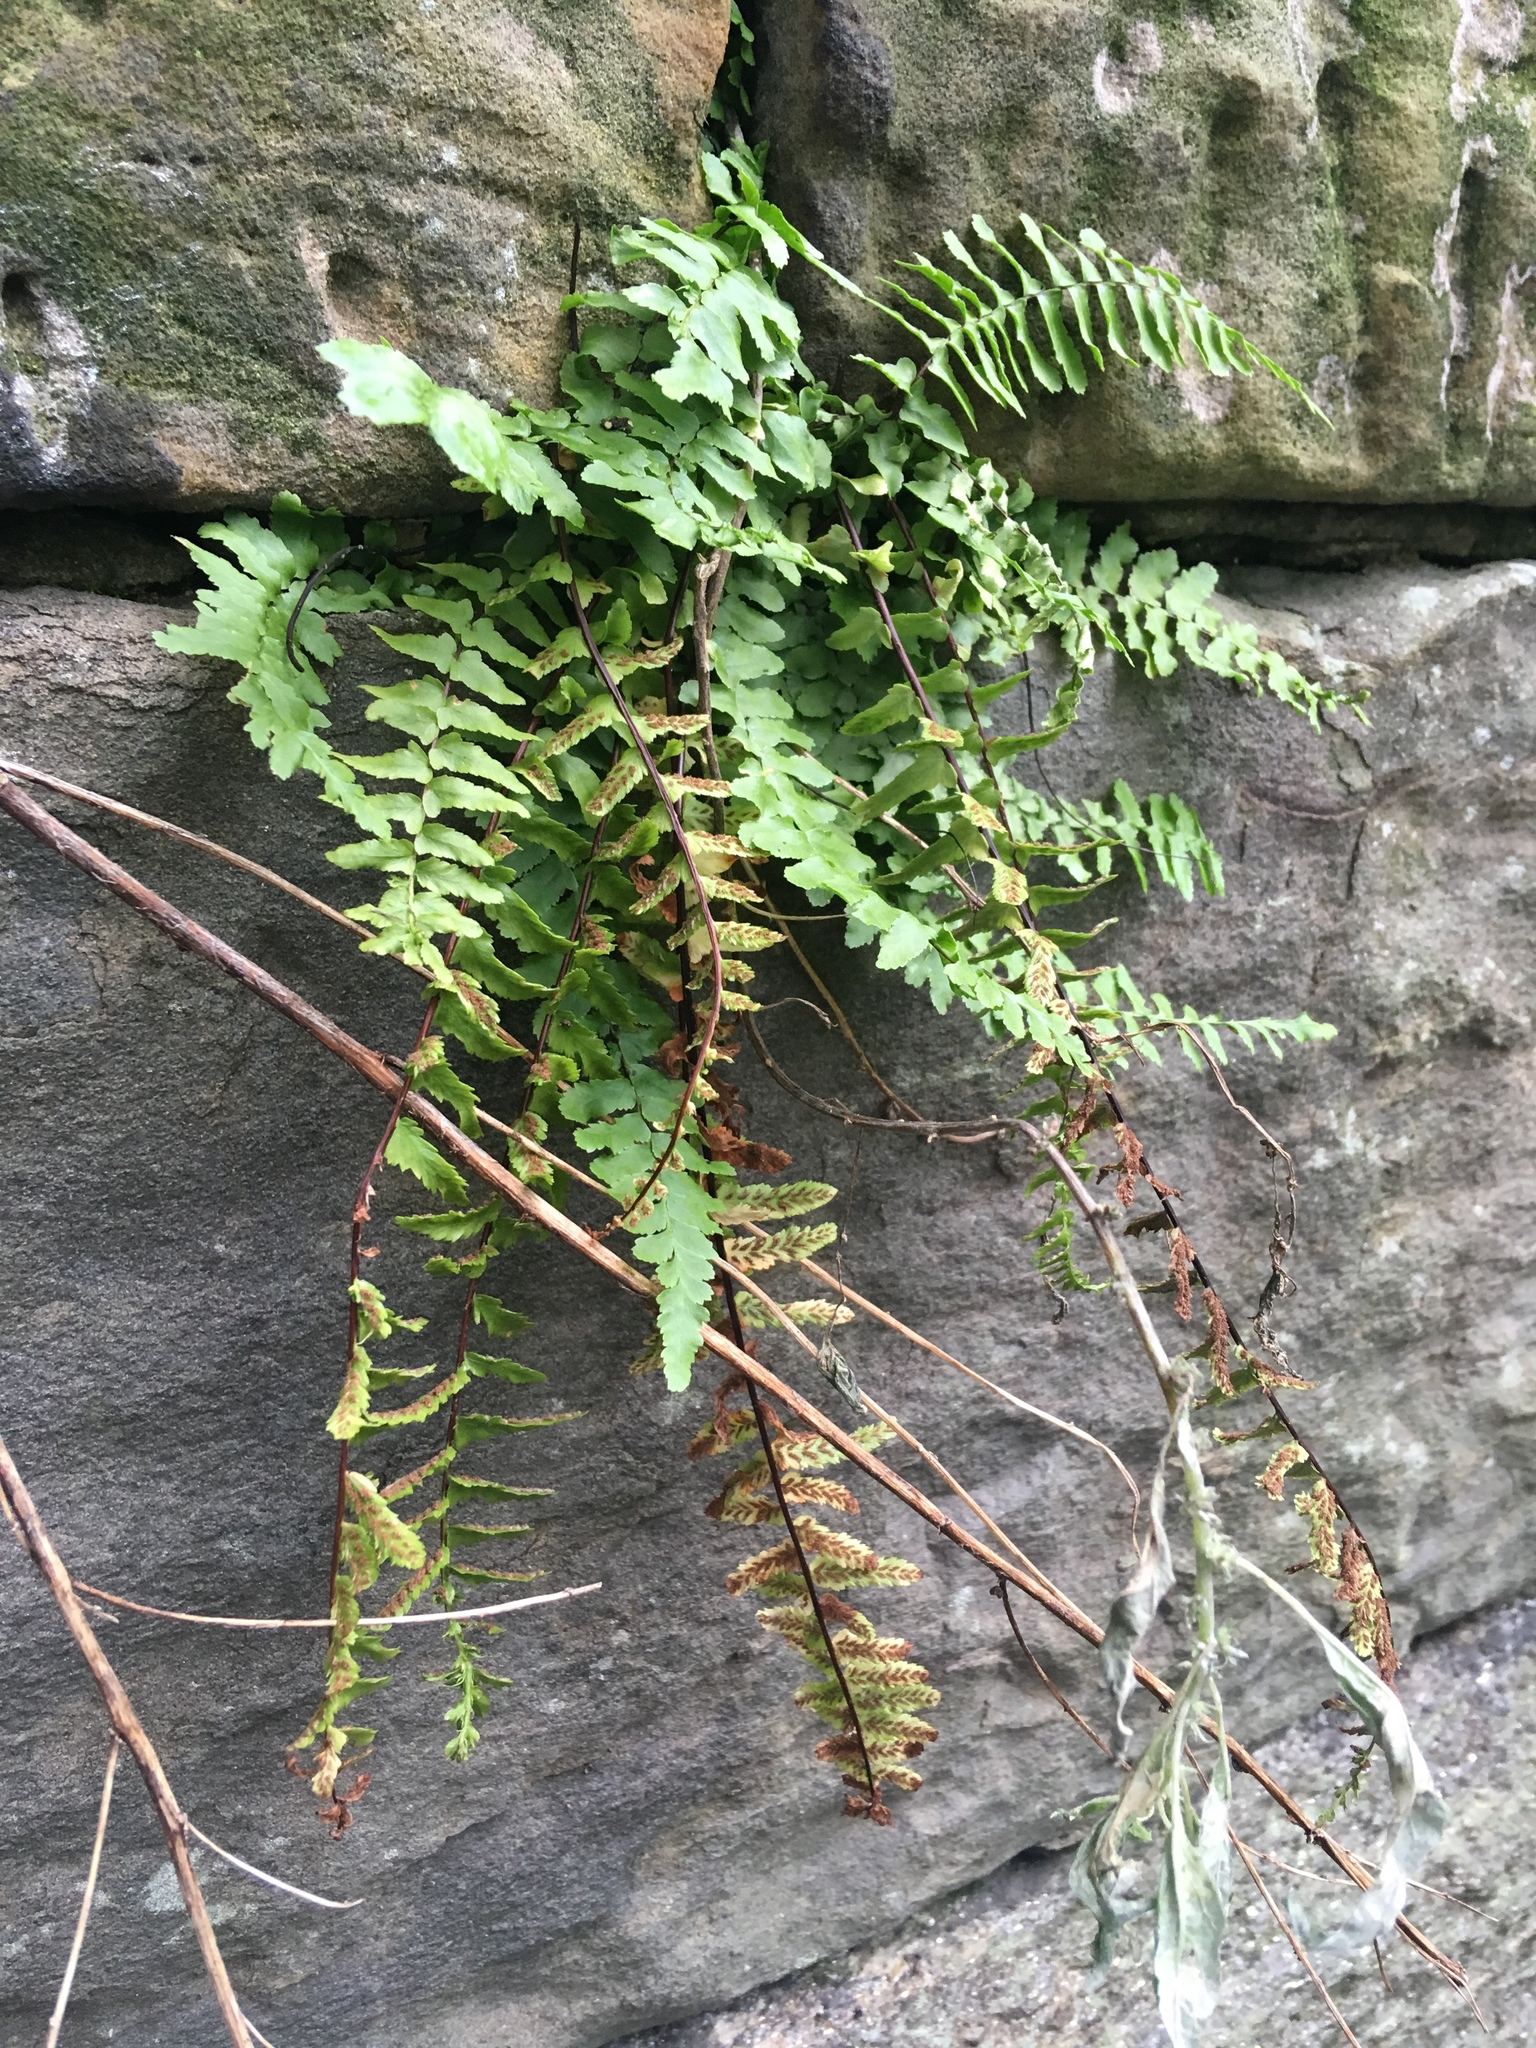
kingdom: Plantae
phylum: Tracheophyta
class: Polypodiopsida
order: Polypodiales
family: Aspleniaceae
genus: Asplenium
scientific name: Asplenium platyneuron
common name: Ebony spleenwort
